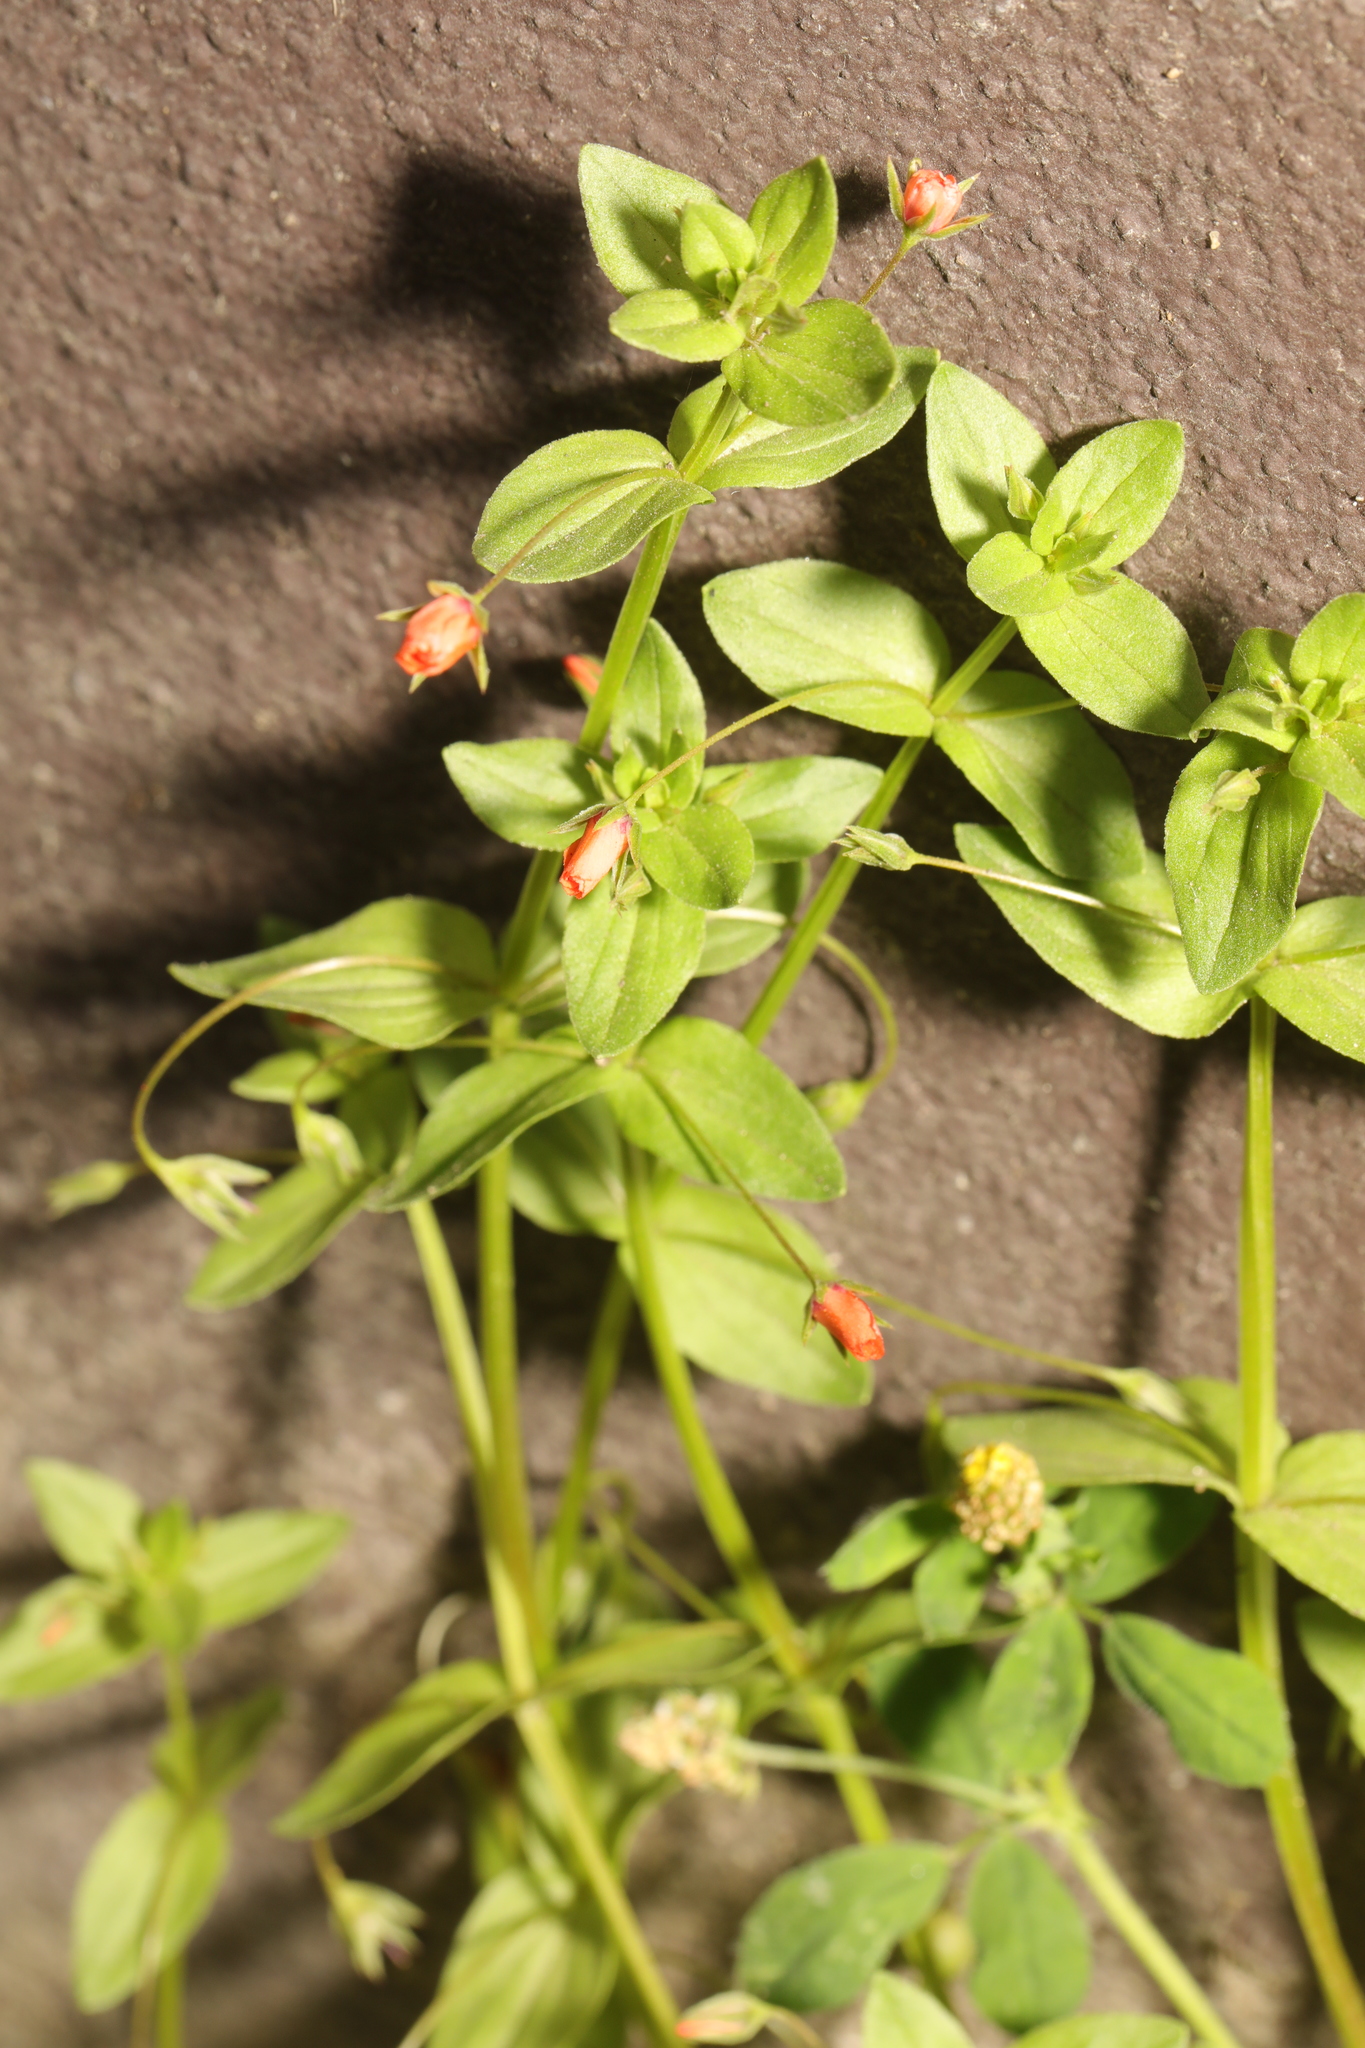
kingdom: Plantae
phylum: Tracheophyta
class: Magnoliopsida
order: Ericales
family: Primulaceae
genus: Lysimachia
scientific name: Lysimachia arvensis
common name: Scarlet pimpernel
